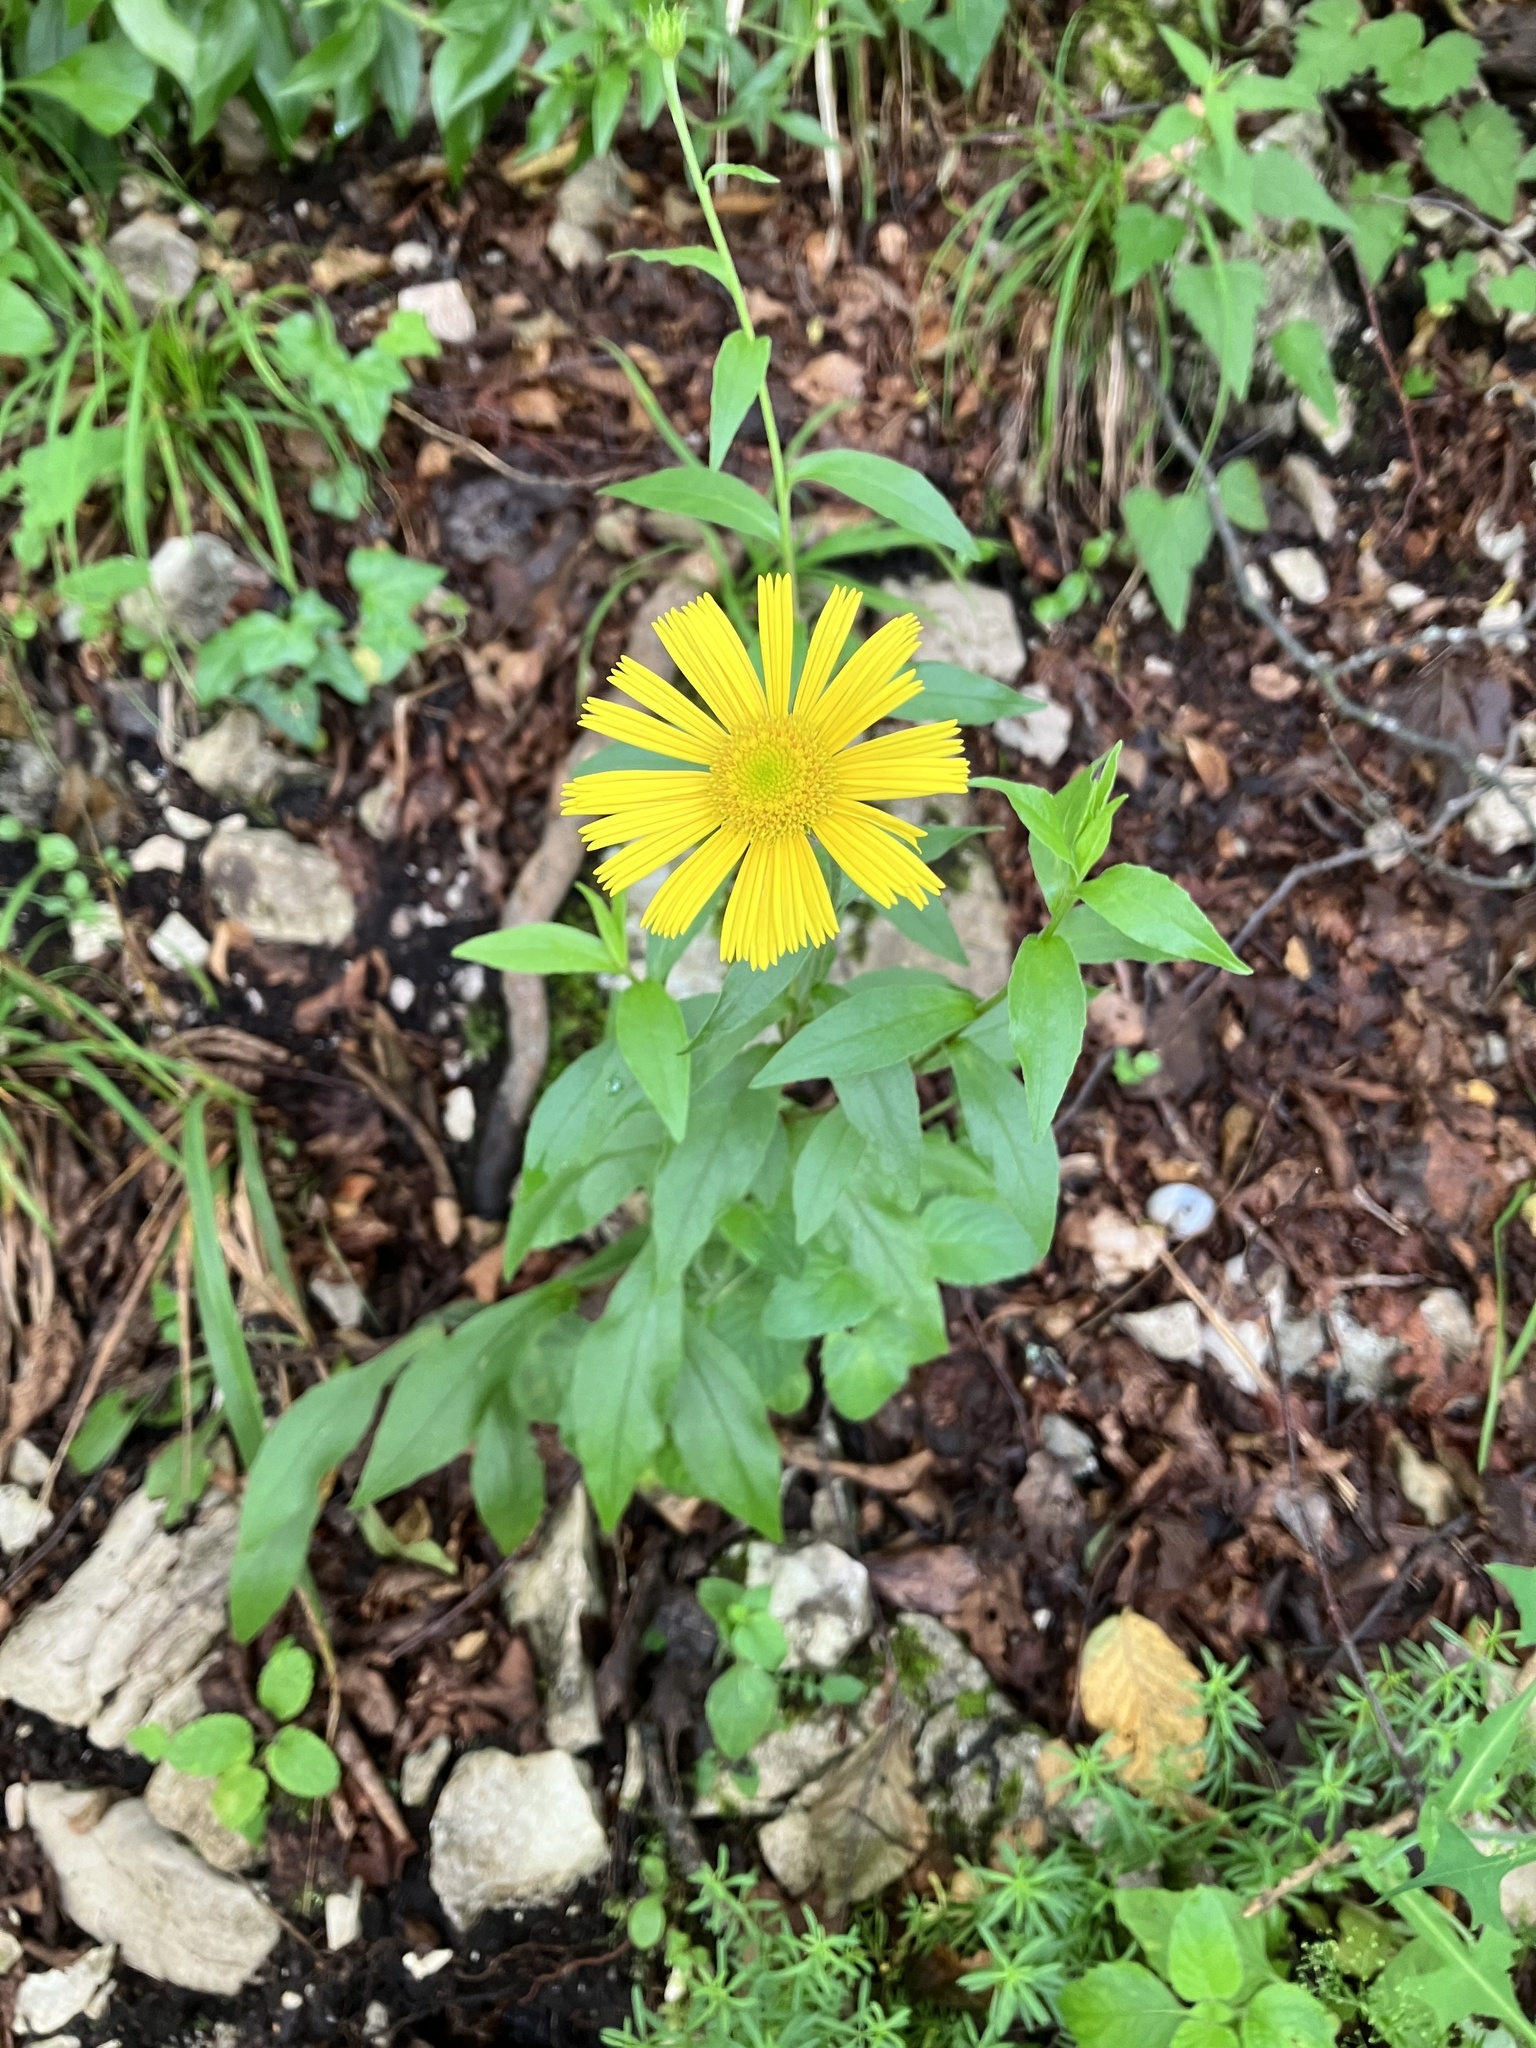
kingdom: Plantae
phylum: Tracheophyta
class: Magnoliopsida
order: Asterales
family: Asteraceae
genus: Buphthalmum
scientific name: Buphthalmum salicifolium
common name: Willow-leaved yellow-oxeye
